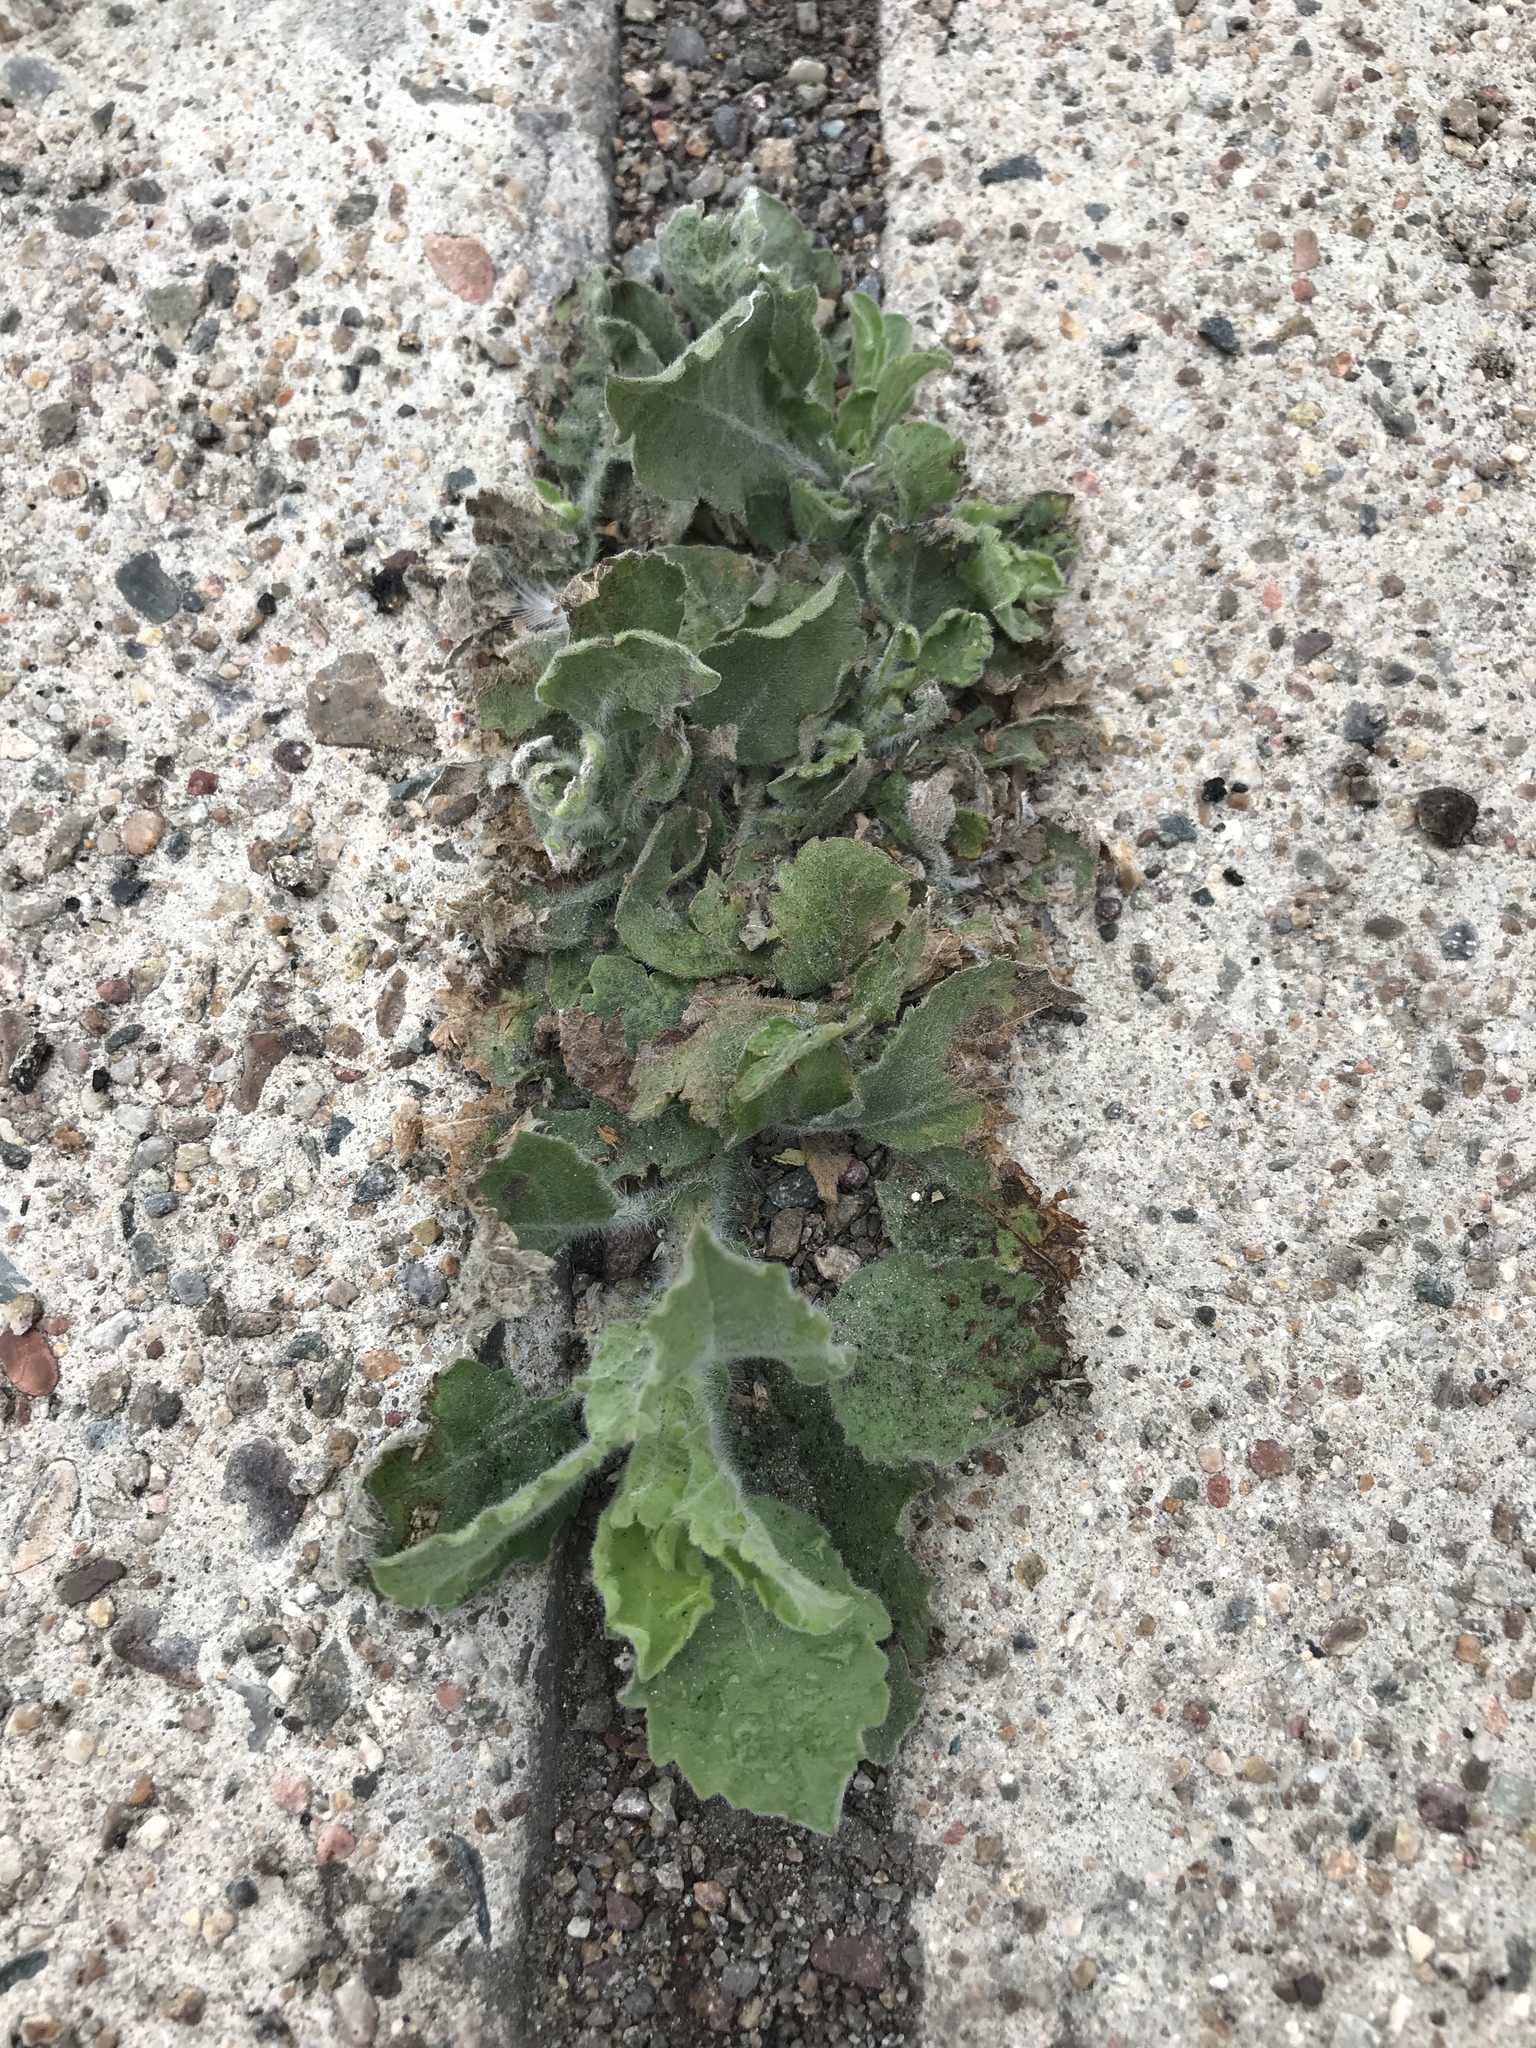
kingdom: Plantae
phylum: Tracheophyta
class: Magnoliopsida
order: Asterales
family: Asteraceae
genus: Heterotheca
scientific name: Heterotheca grandiflora
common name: Telegraphweed
